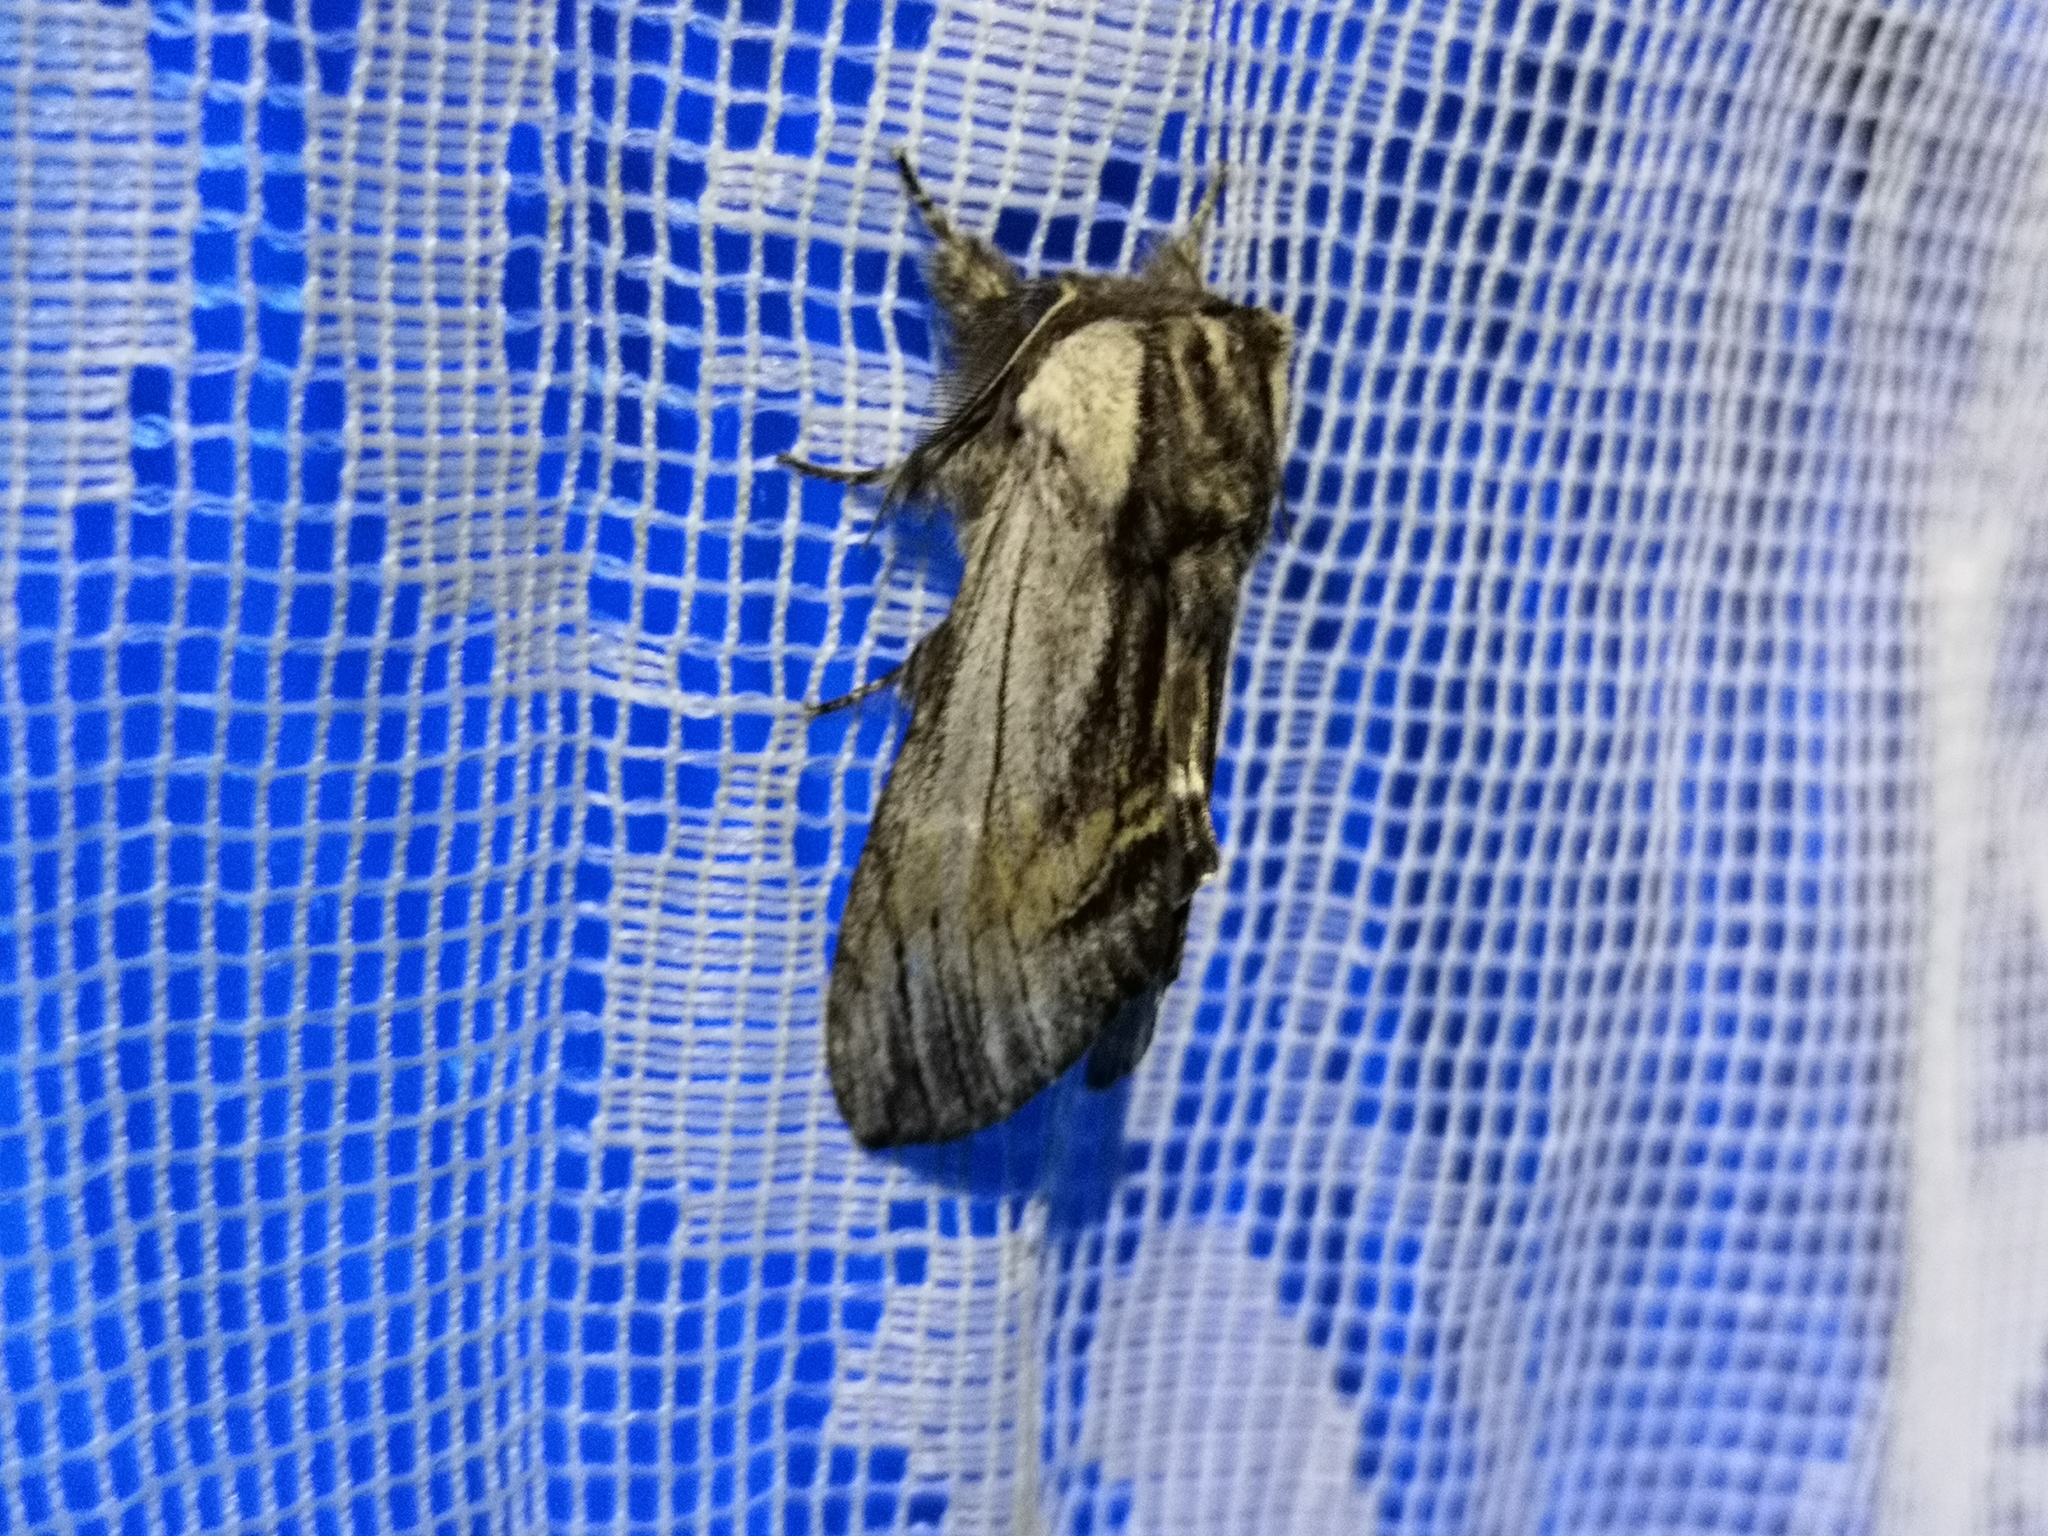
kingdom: Animalia
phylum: Arthropoda
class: Insecta
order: Lepidoptera
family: Notodontidae
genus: Harpyia
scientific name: Harpyia milhauseri
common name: Tawny prominent
